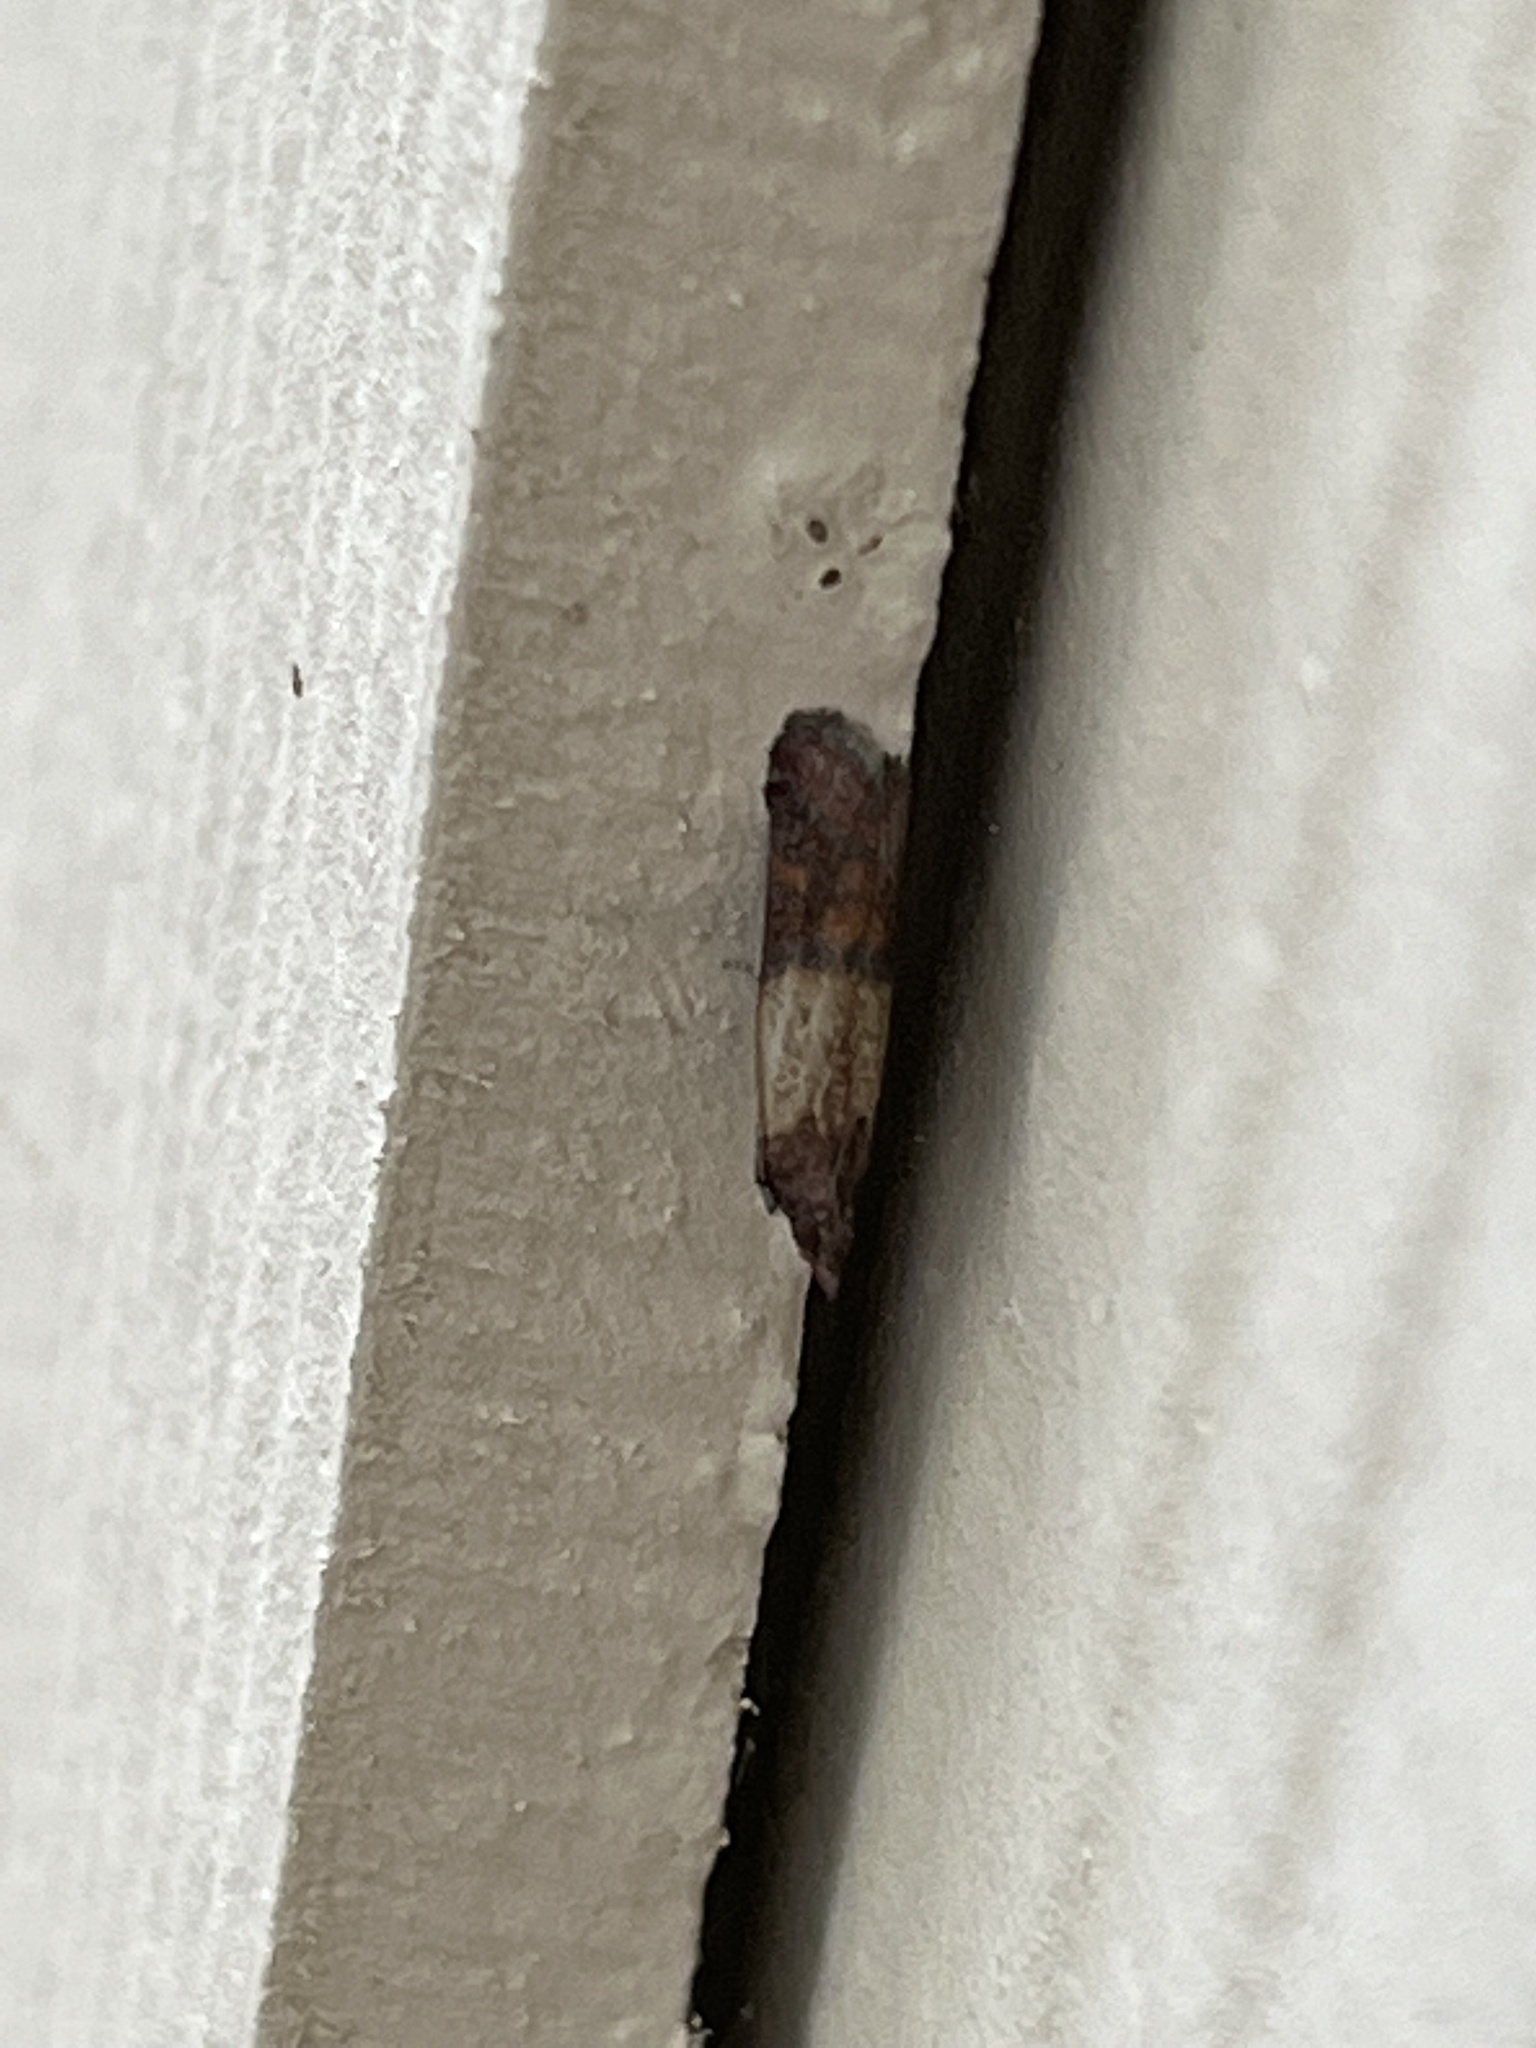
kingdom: Animalia
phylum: Arthropoda
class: Insecta
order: Lepidoptera
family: Pyralidae
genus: Plodia
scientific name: Plodia interpunctella
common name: Indian meal moth
